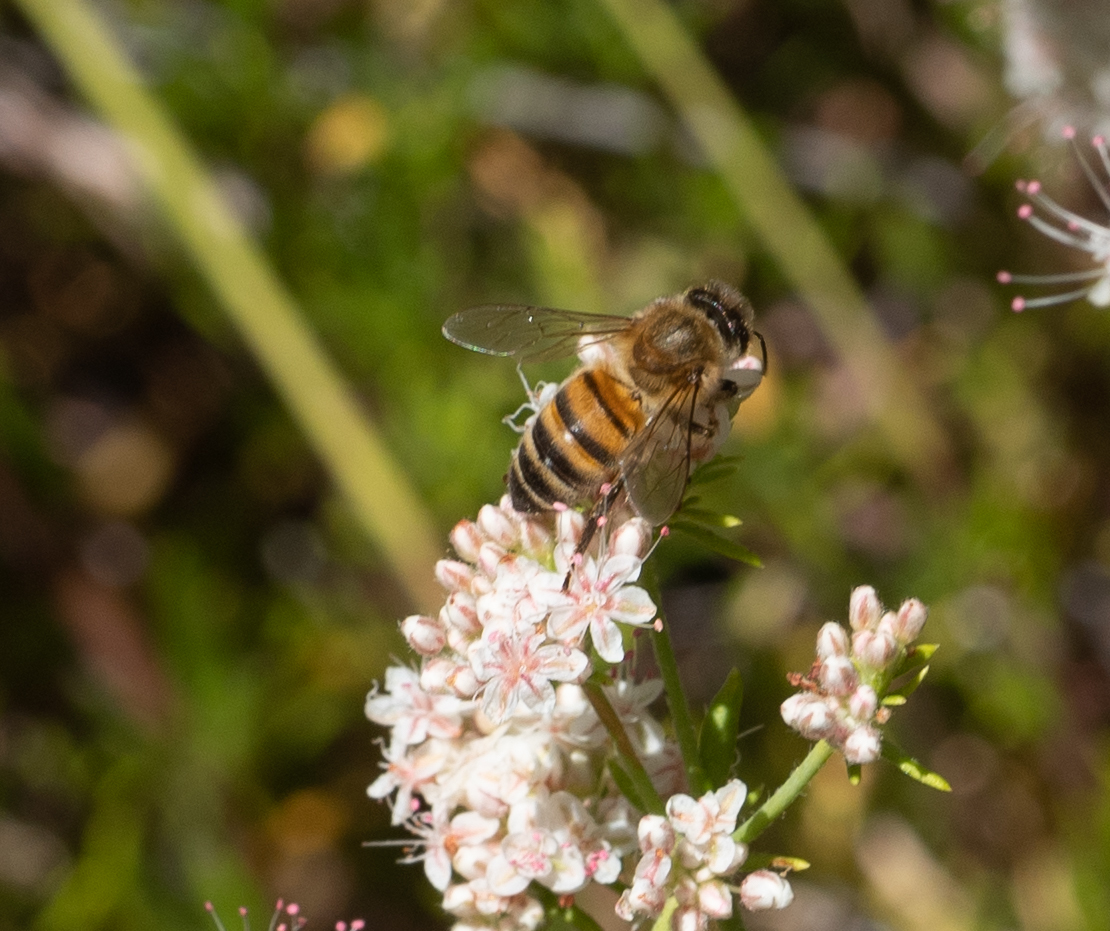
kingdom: Animalia
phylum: Arthropoda
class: Insecta
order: Hymenoptera
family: Apidae
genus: Apis
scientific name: Apis mellifera
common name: Honey bee
